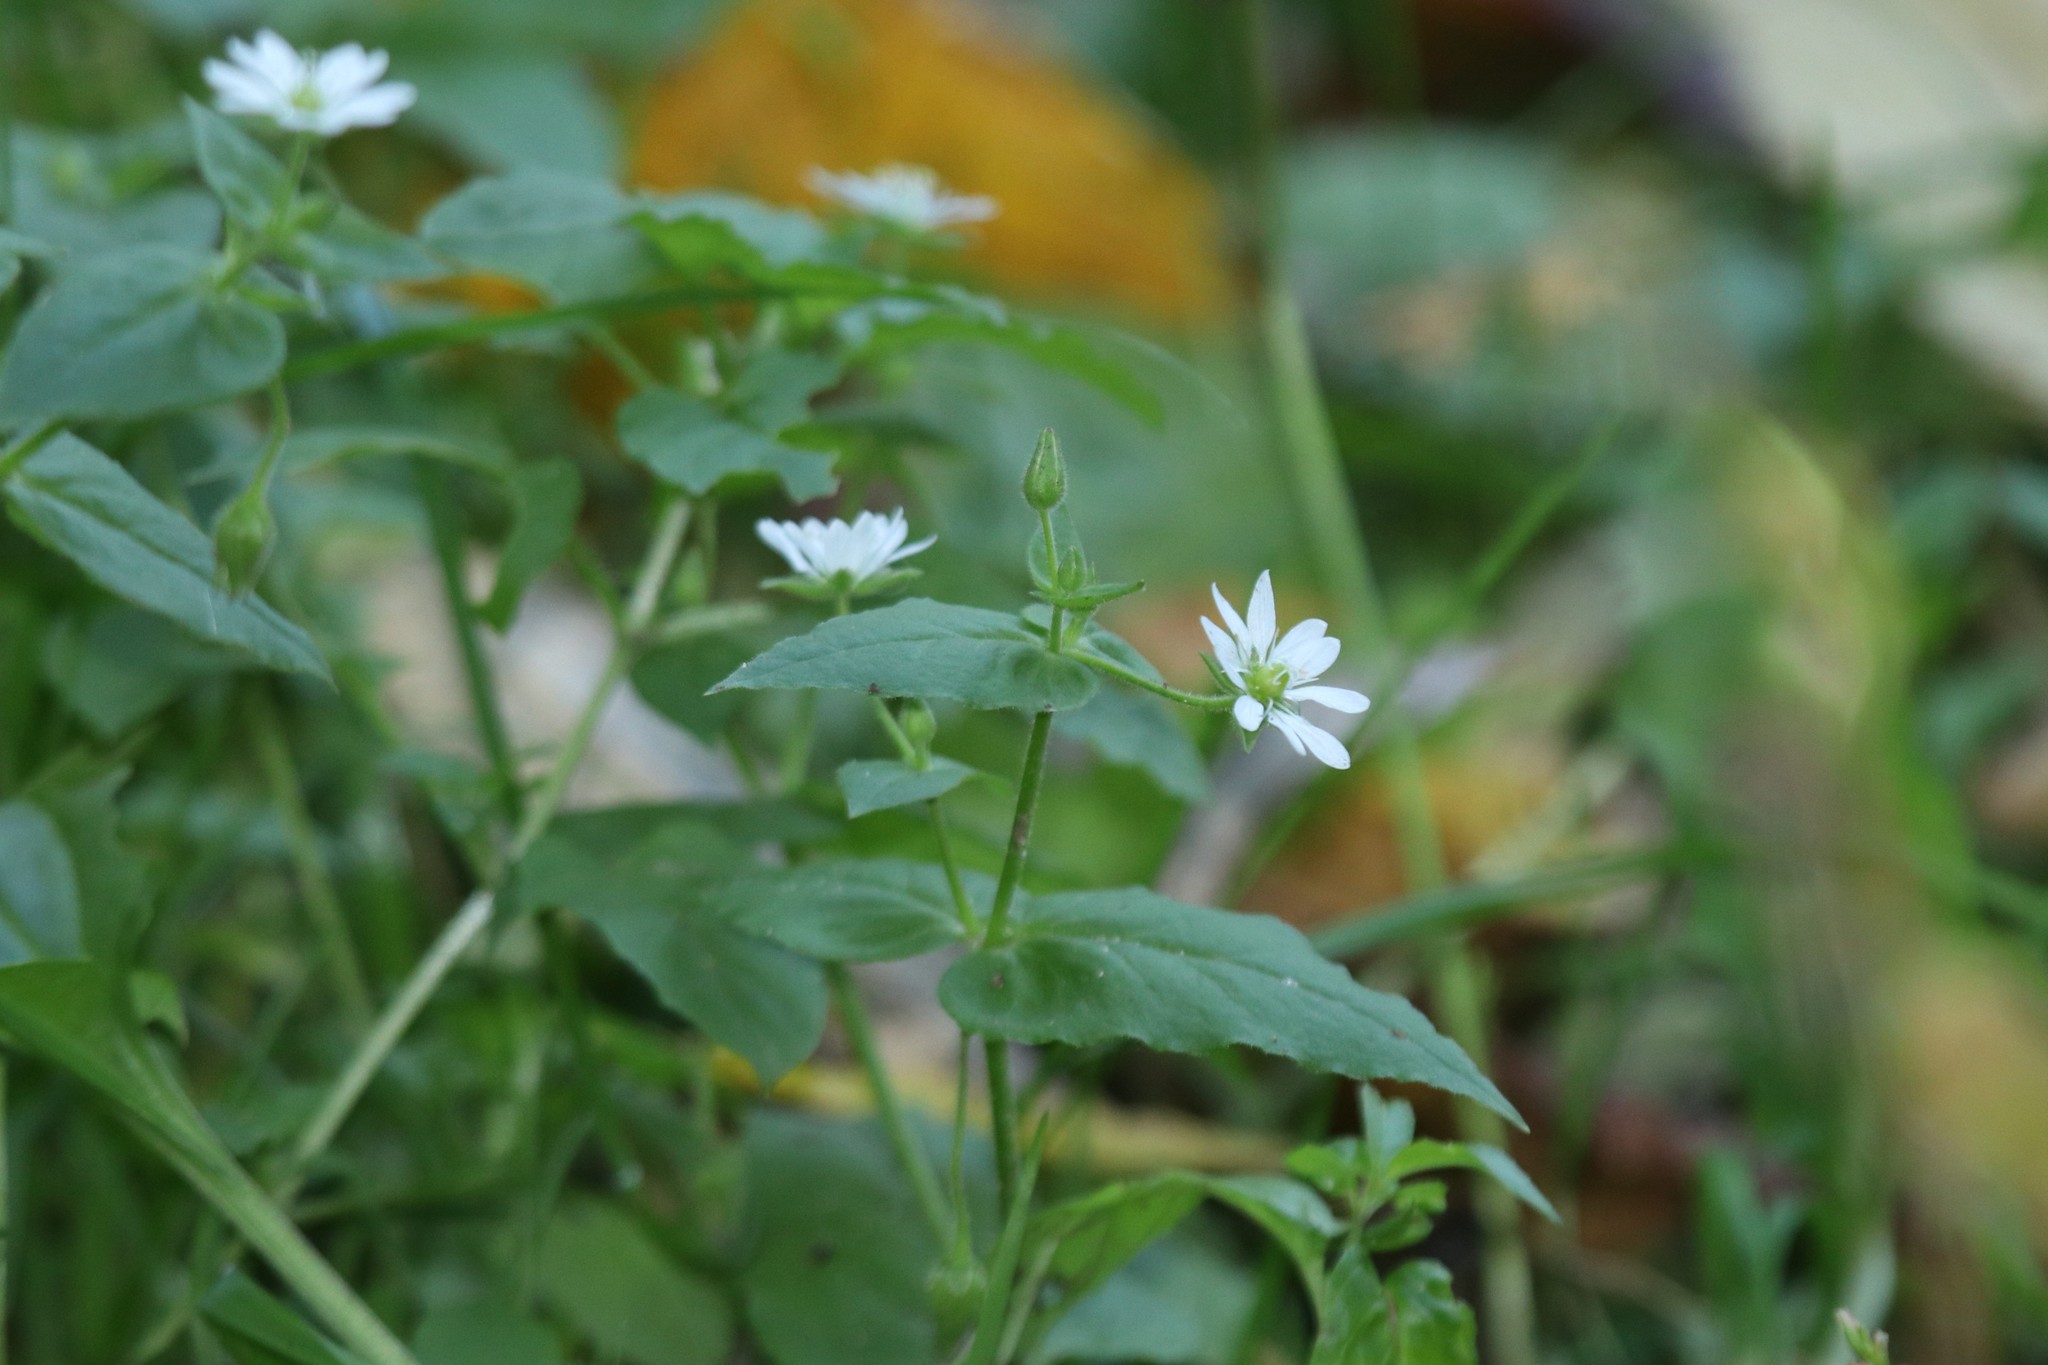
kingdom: Plantae
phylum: Tracheophyta
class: Magnoliopsida
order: Caryophyllales
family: Caryophyllaceae
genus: Stellaria
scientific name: Stellaria aquatica
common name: Water chickweed
